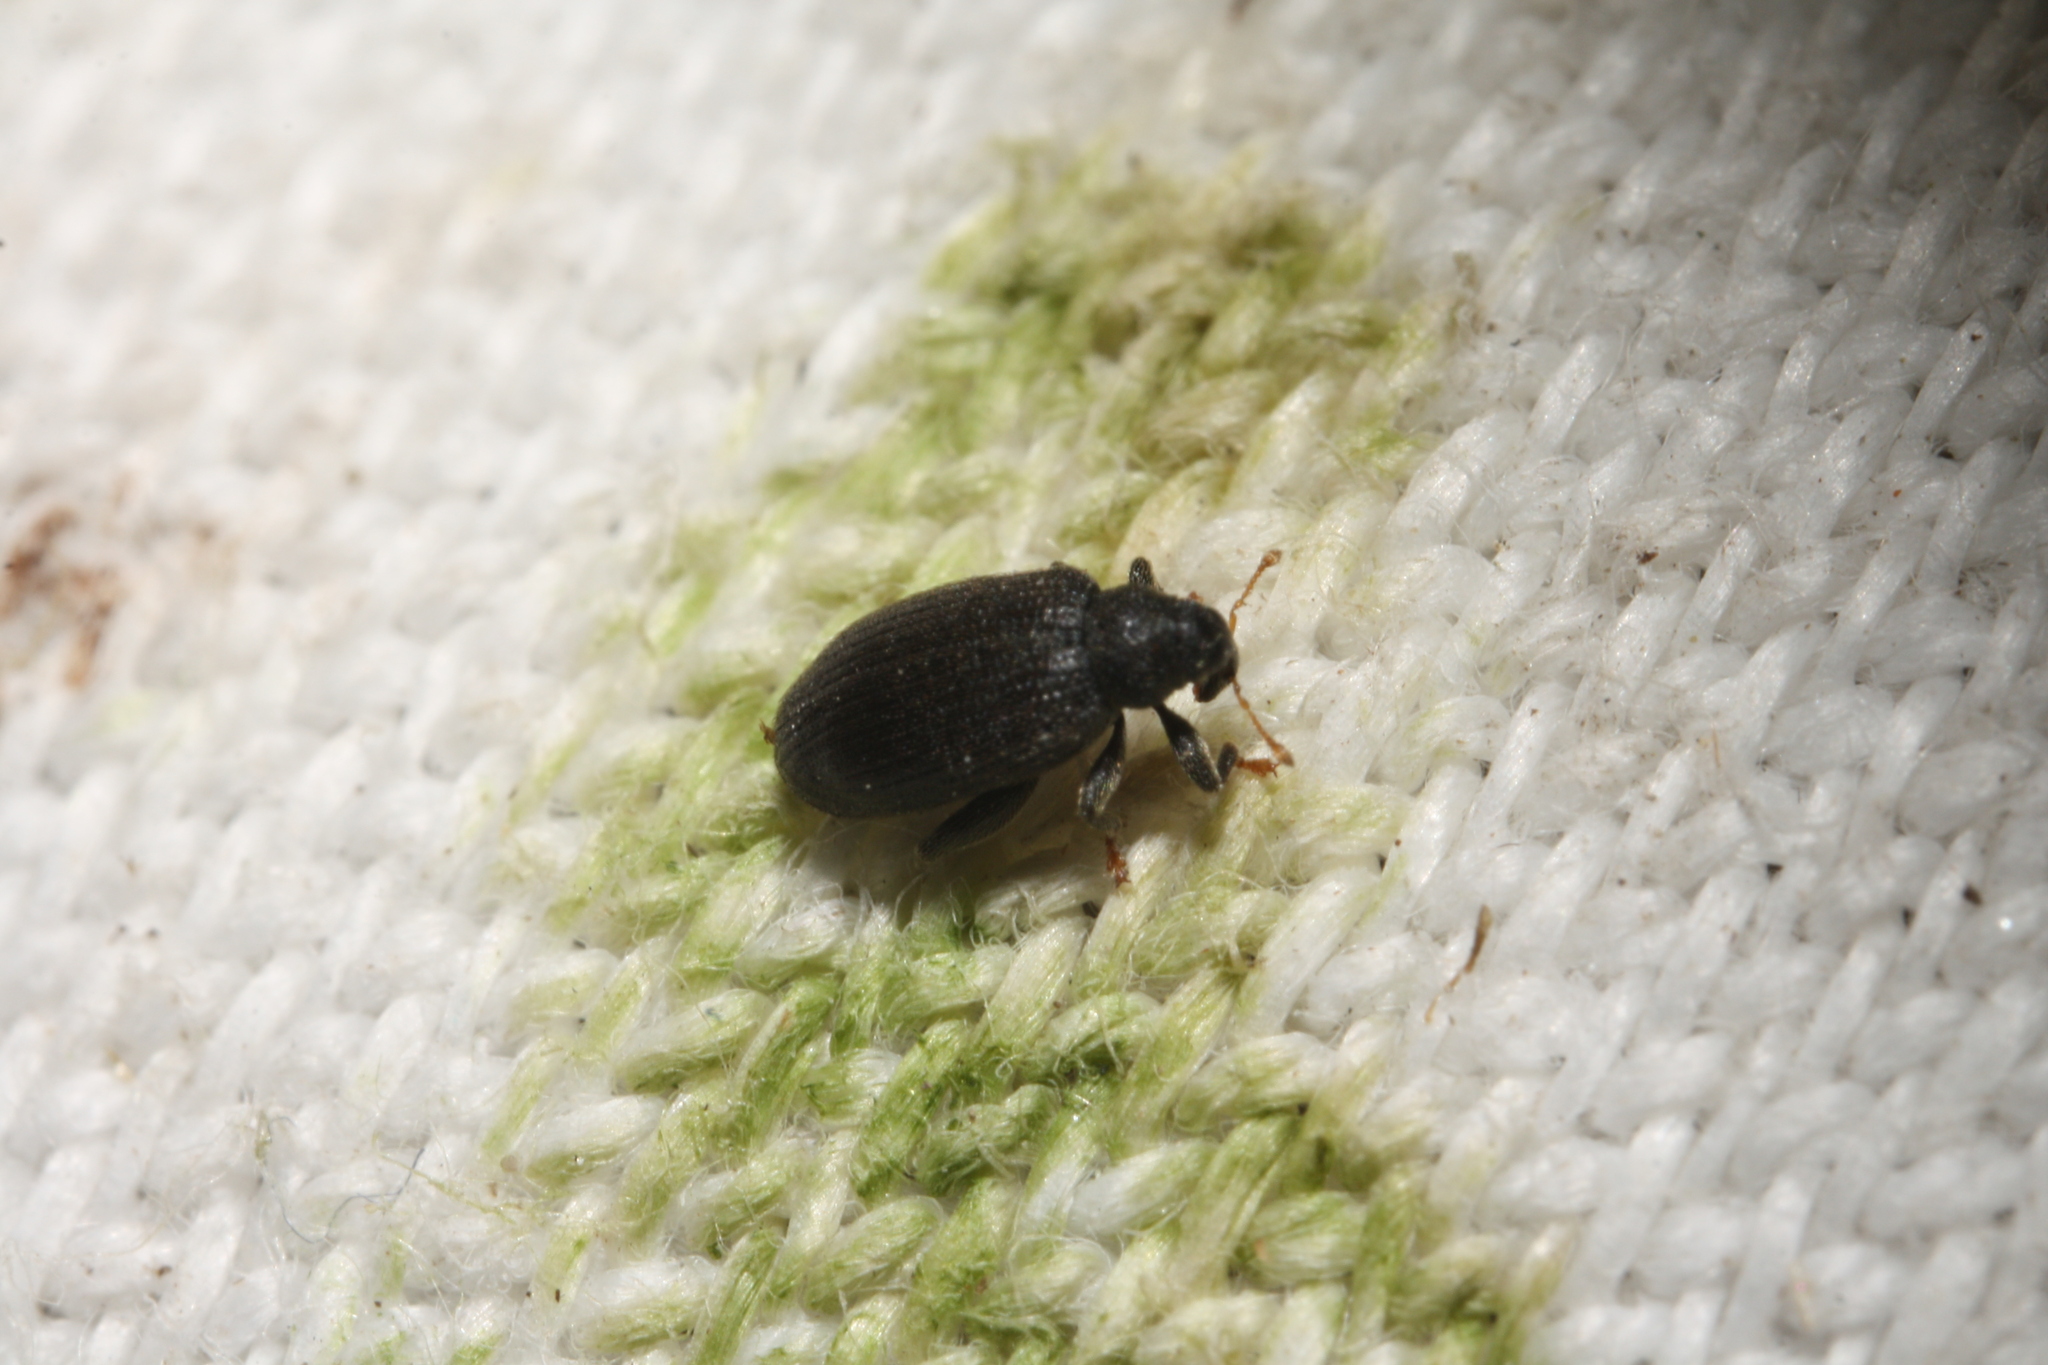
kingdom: Animalia
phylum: Arthropoda
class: Insecta
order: Coleoptera
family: Curculionidae
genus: Orchestes
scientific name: Orchestes fagi
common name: Beech leaf miner
